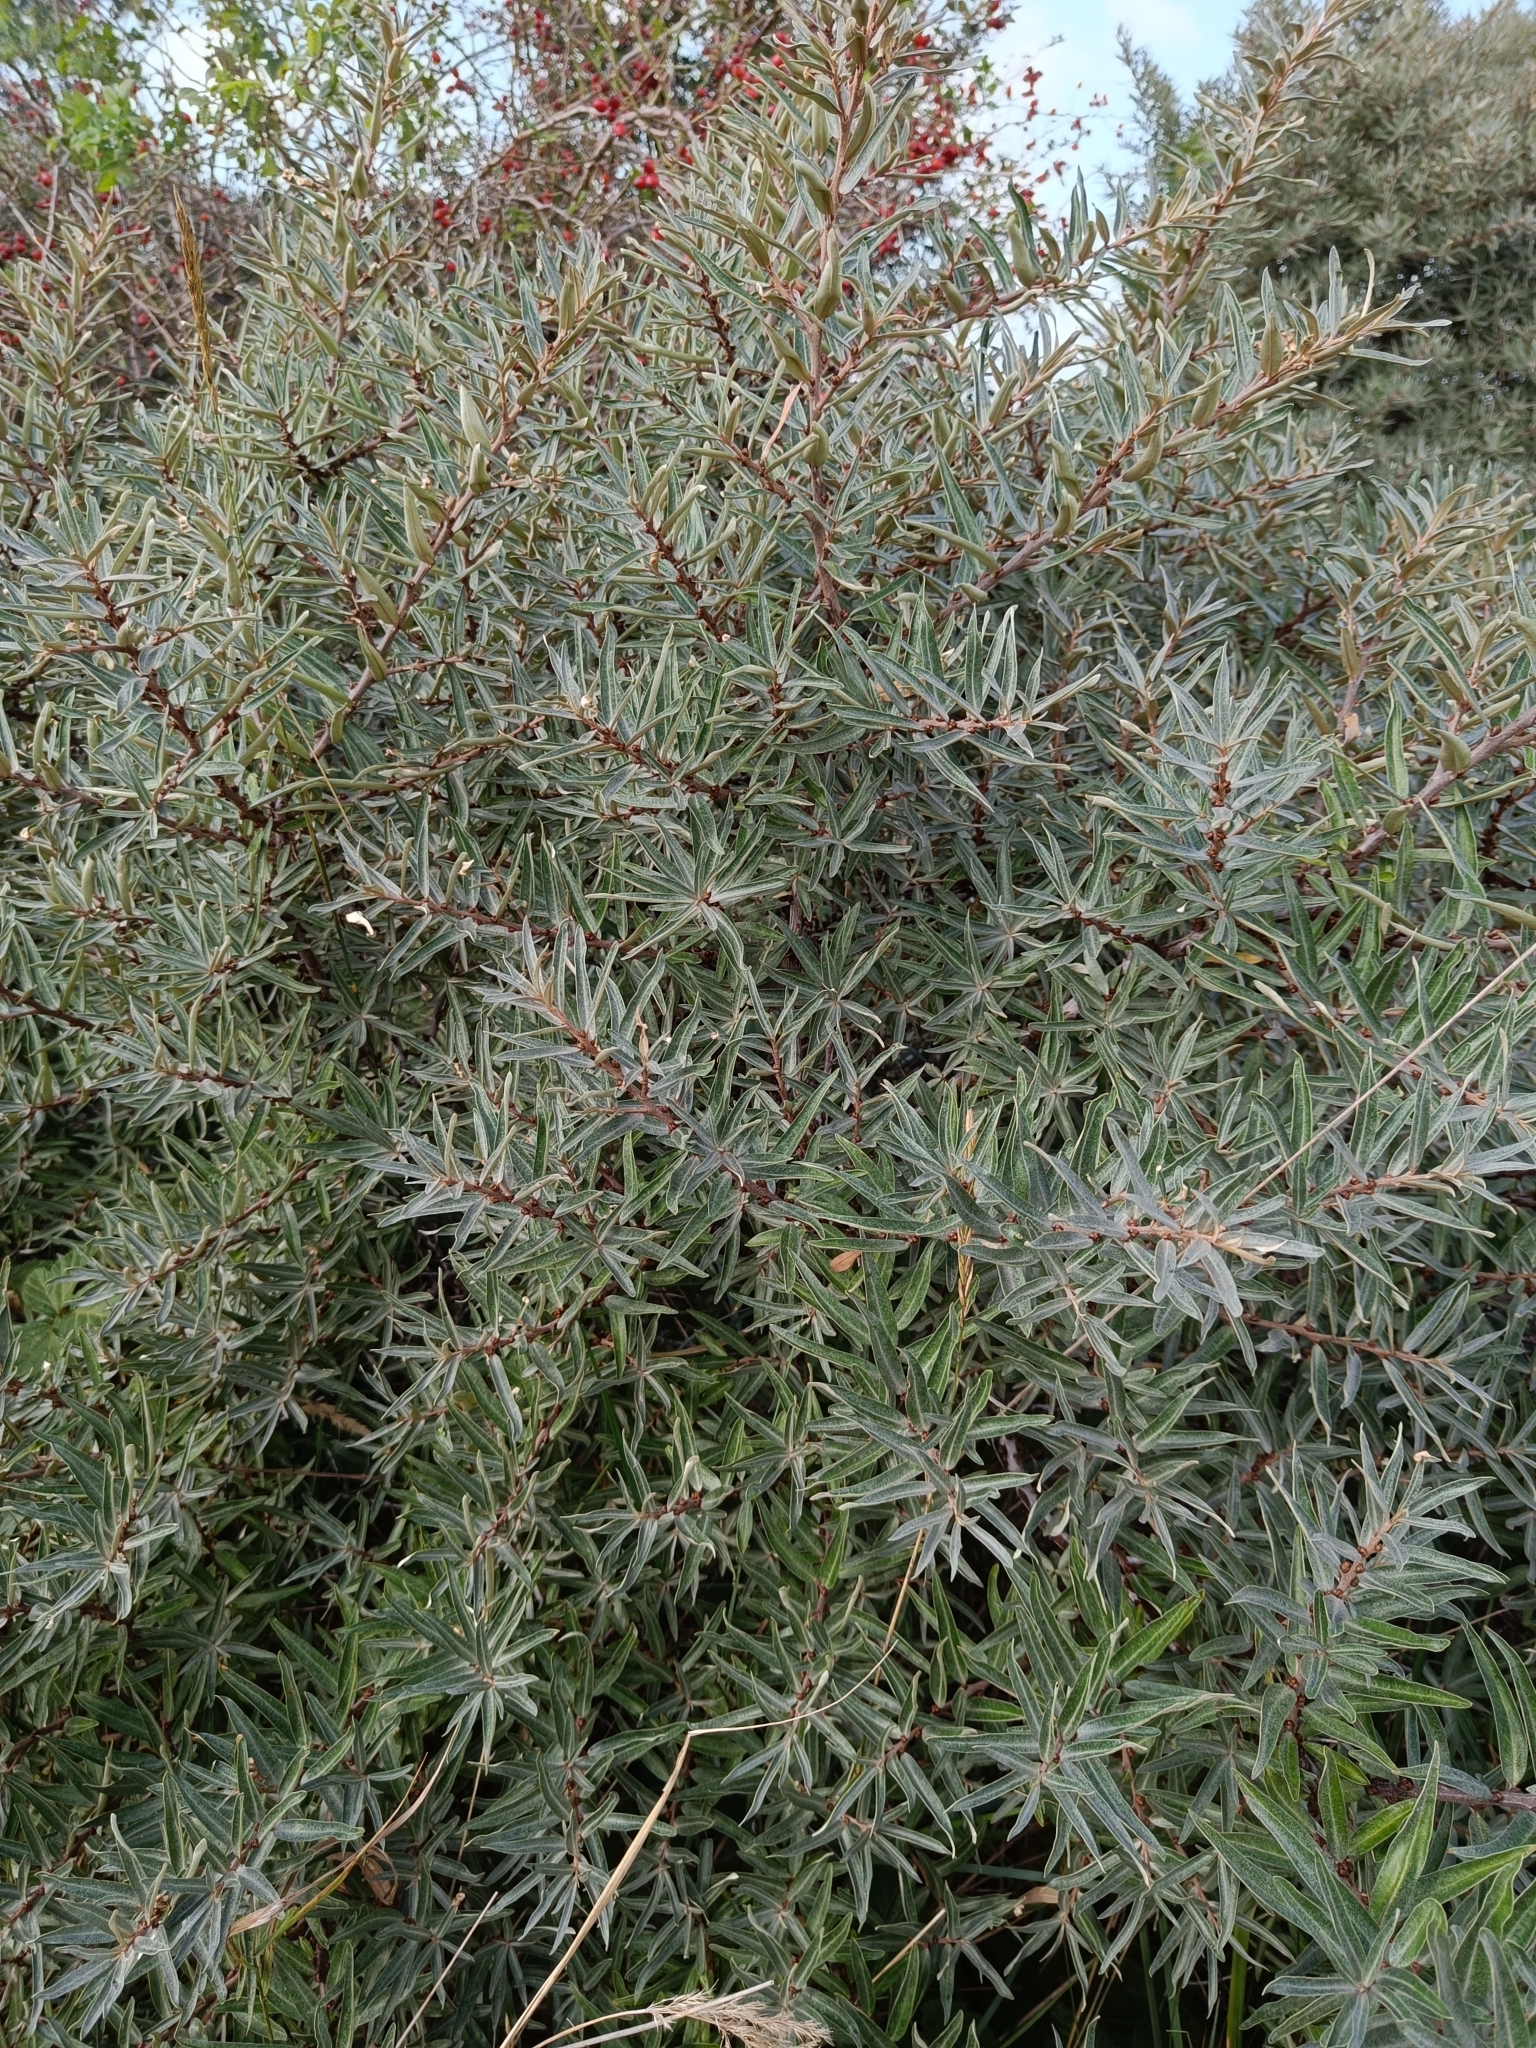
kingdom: Plantae
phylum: Tracheophyta
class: Magnoliopsida
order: Rosales
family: Elaeagnaceae
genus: Hippophae
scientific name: Hippophae rhamnoides
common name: Sea-buckthorn
